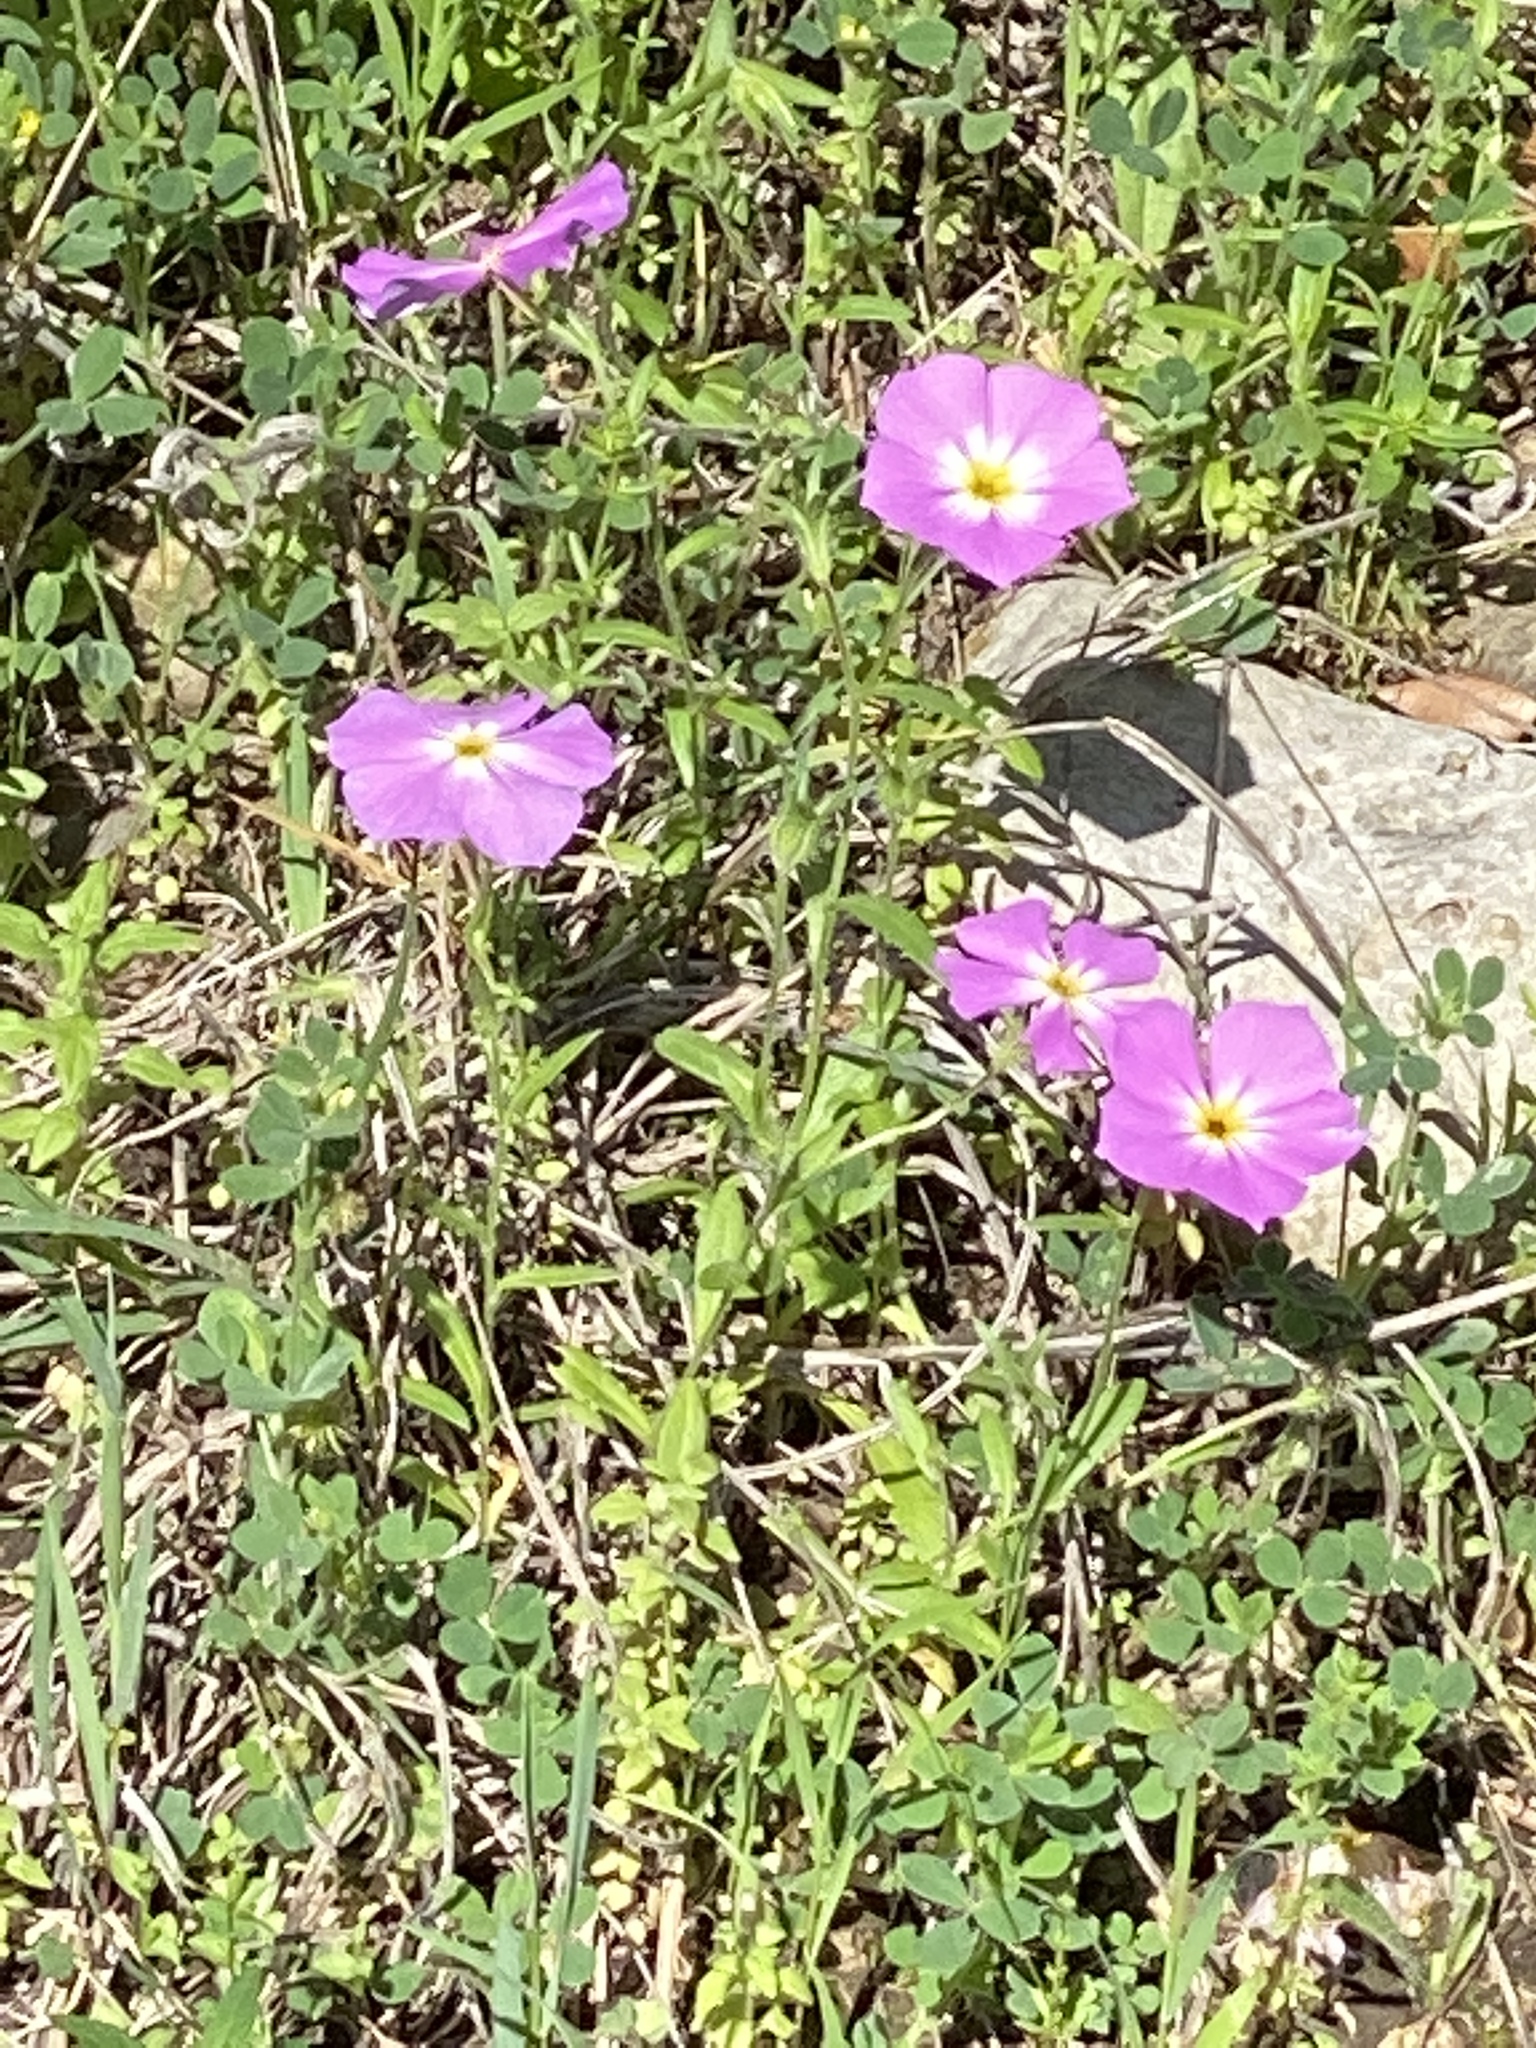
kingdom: Plantae
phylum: Tracheophyta
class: Magnoliopsida
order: Ericales
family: Polemoniaceae
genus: Phlox
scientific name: Phlox roemeriana
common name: Roemer's phlox
